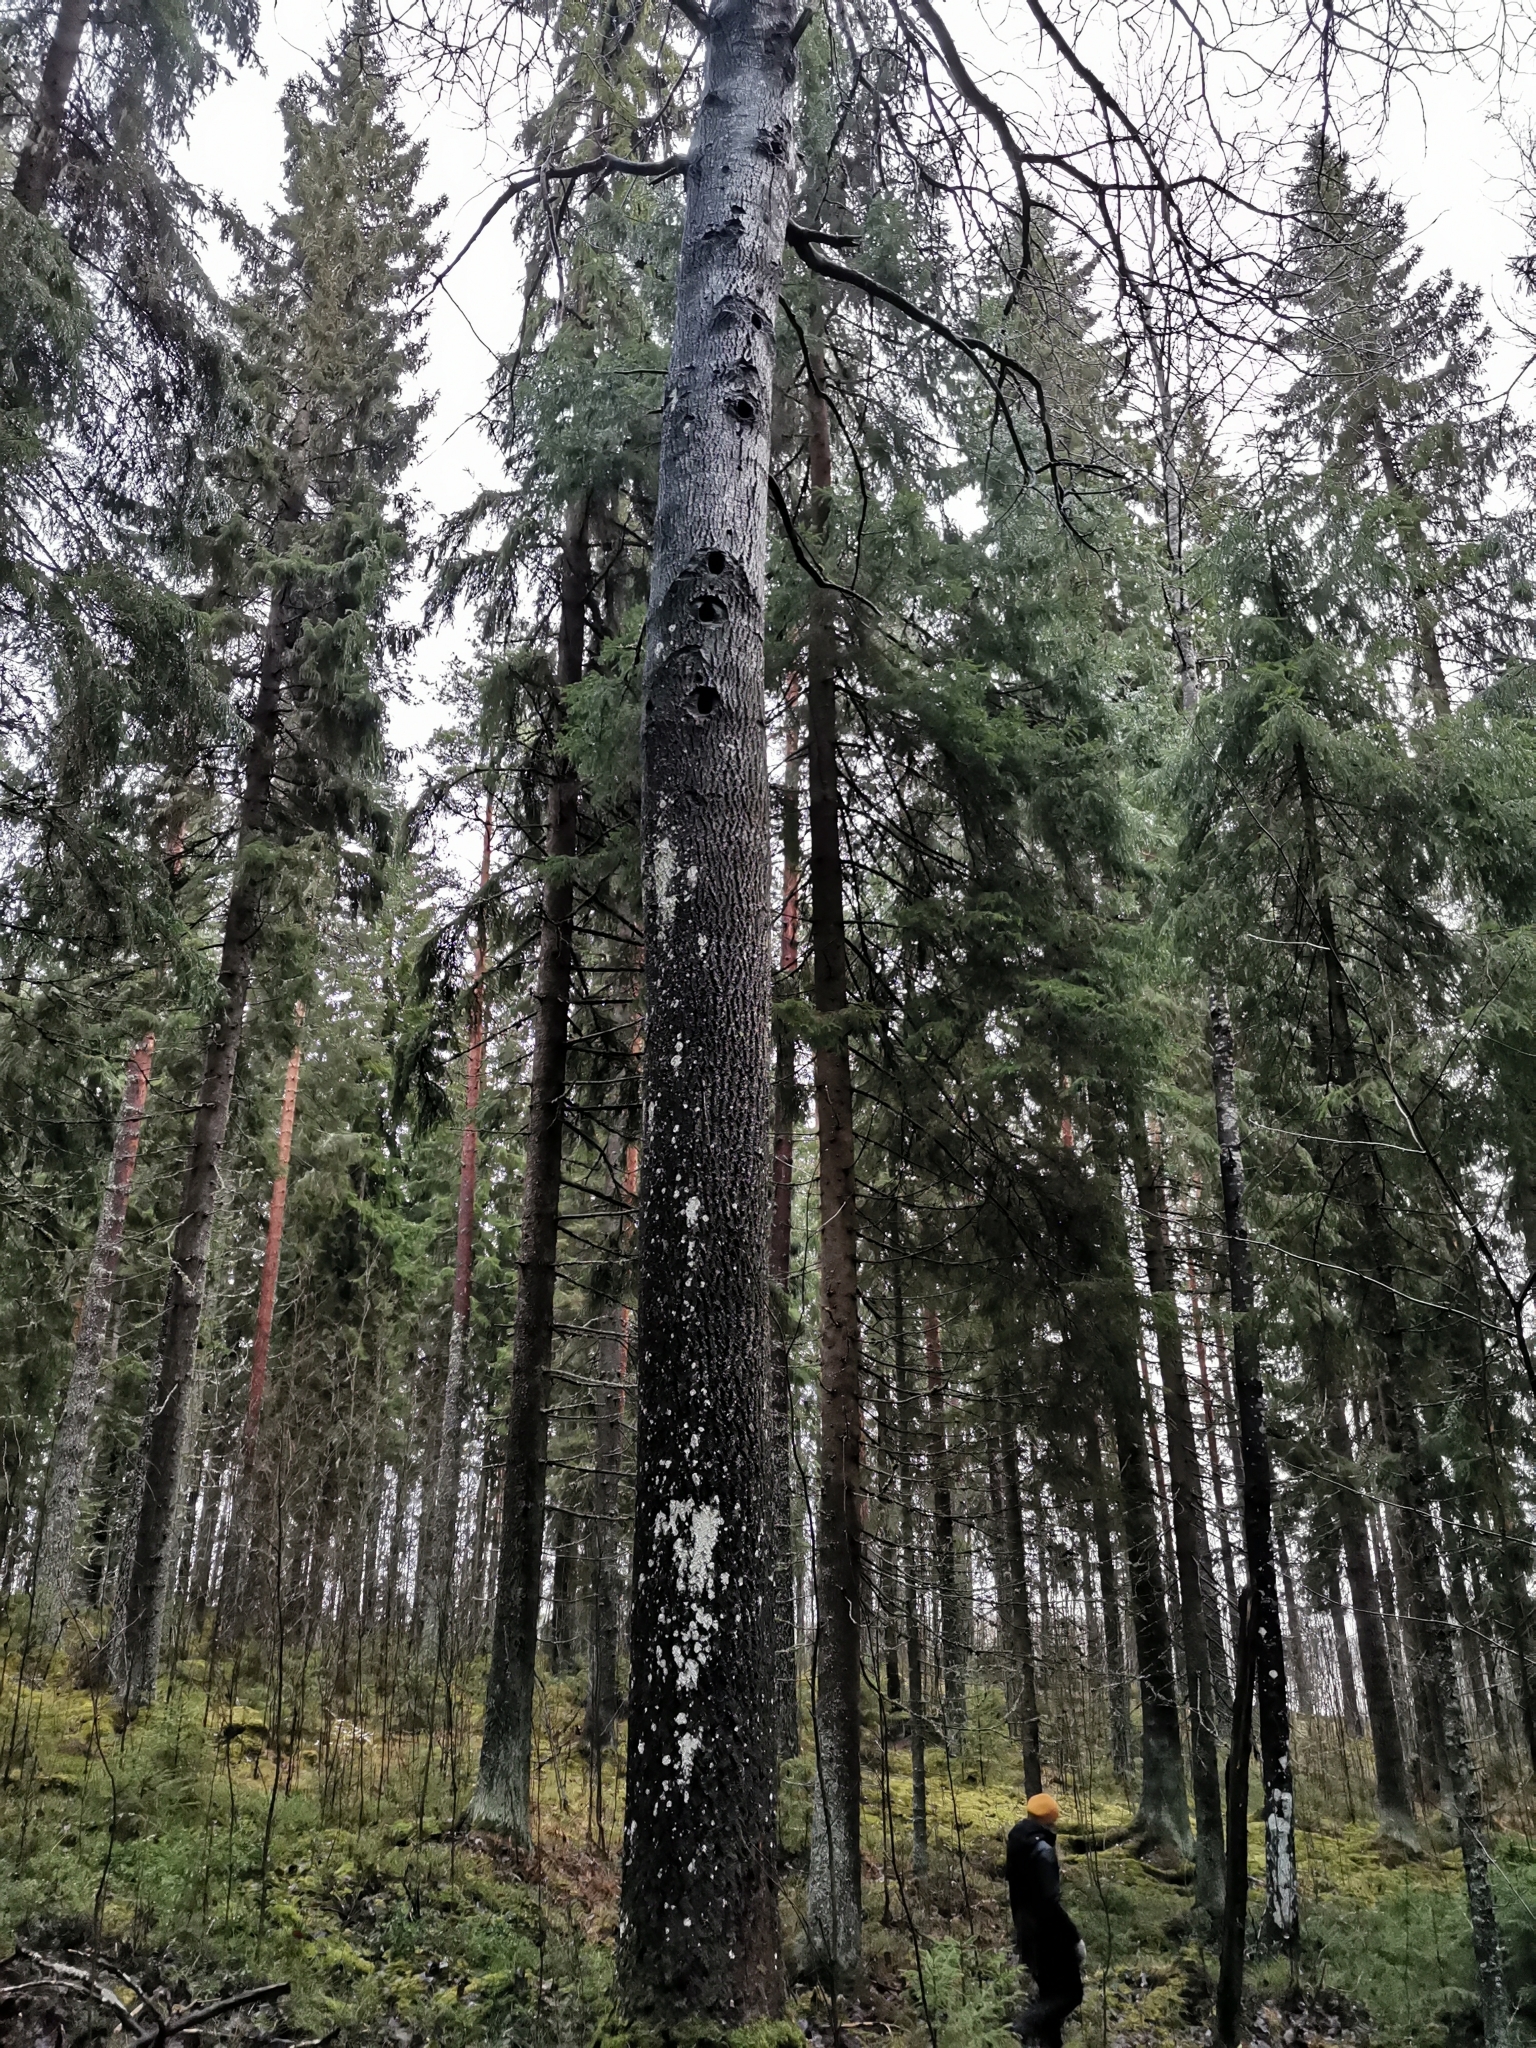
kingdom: Animalia
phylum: Chordata
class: Mammalia
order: Rodentia
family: Sciuridae
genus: Pteromys
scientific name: Pteromys volans
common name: Siberian flying squirrel
